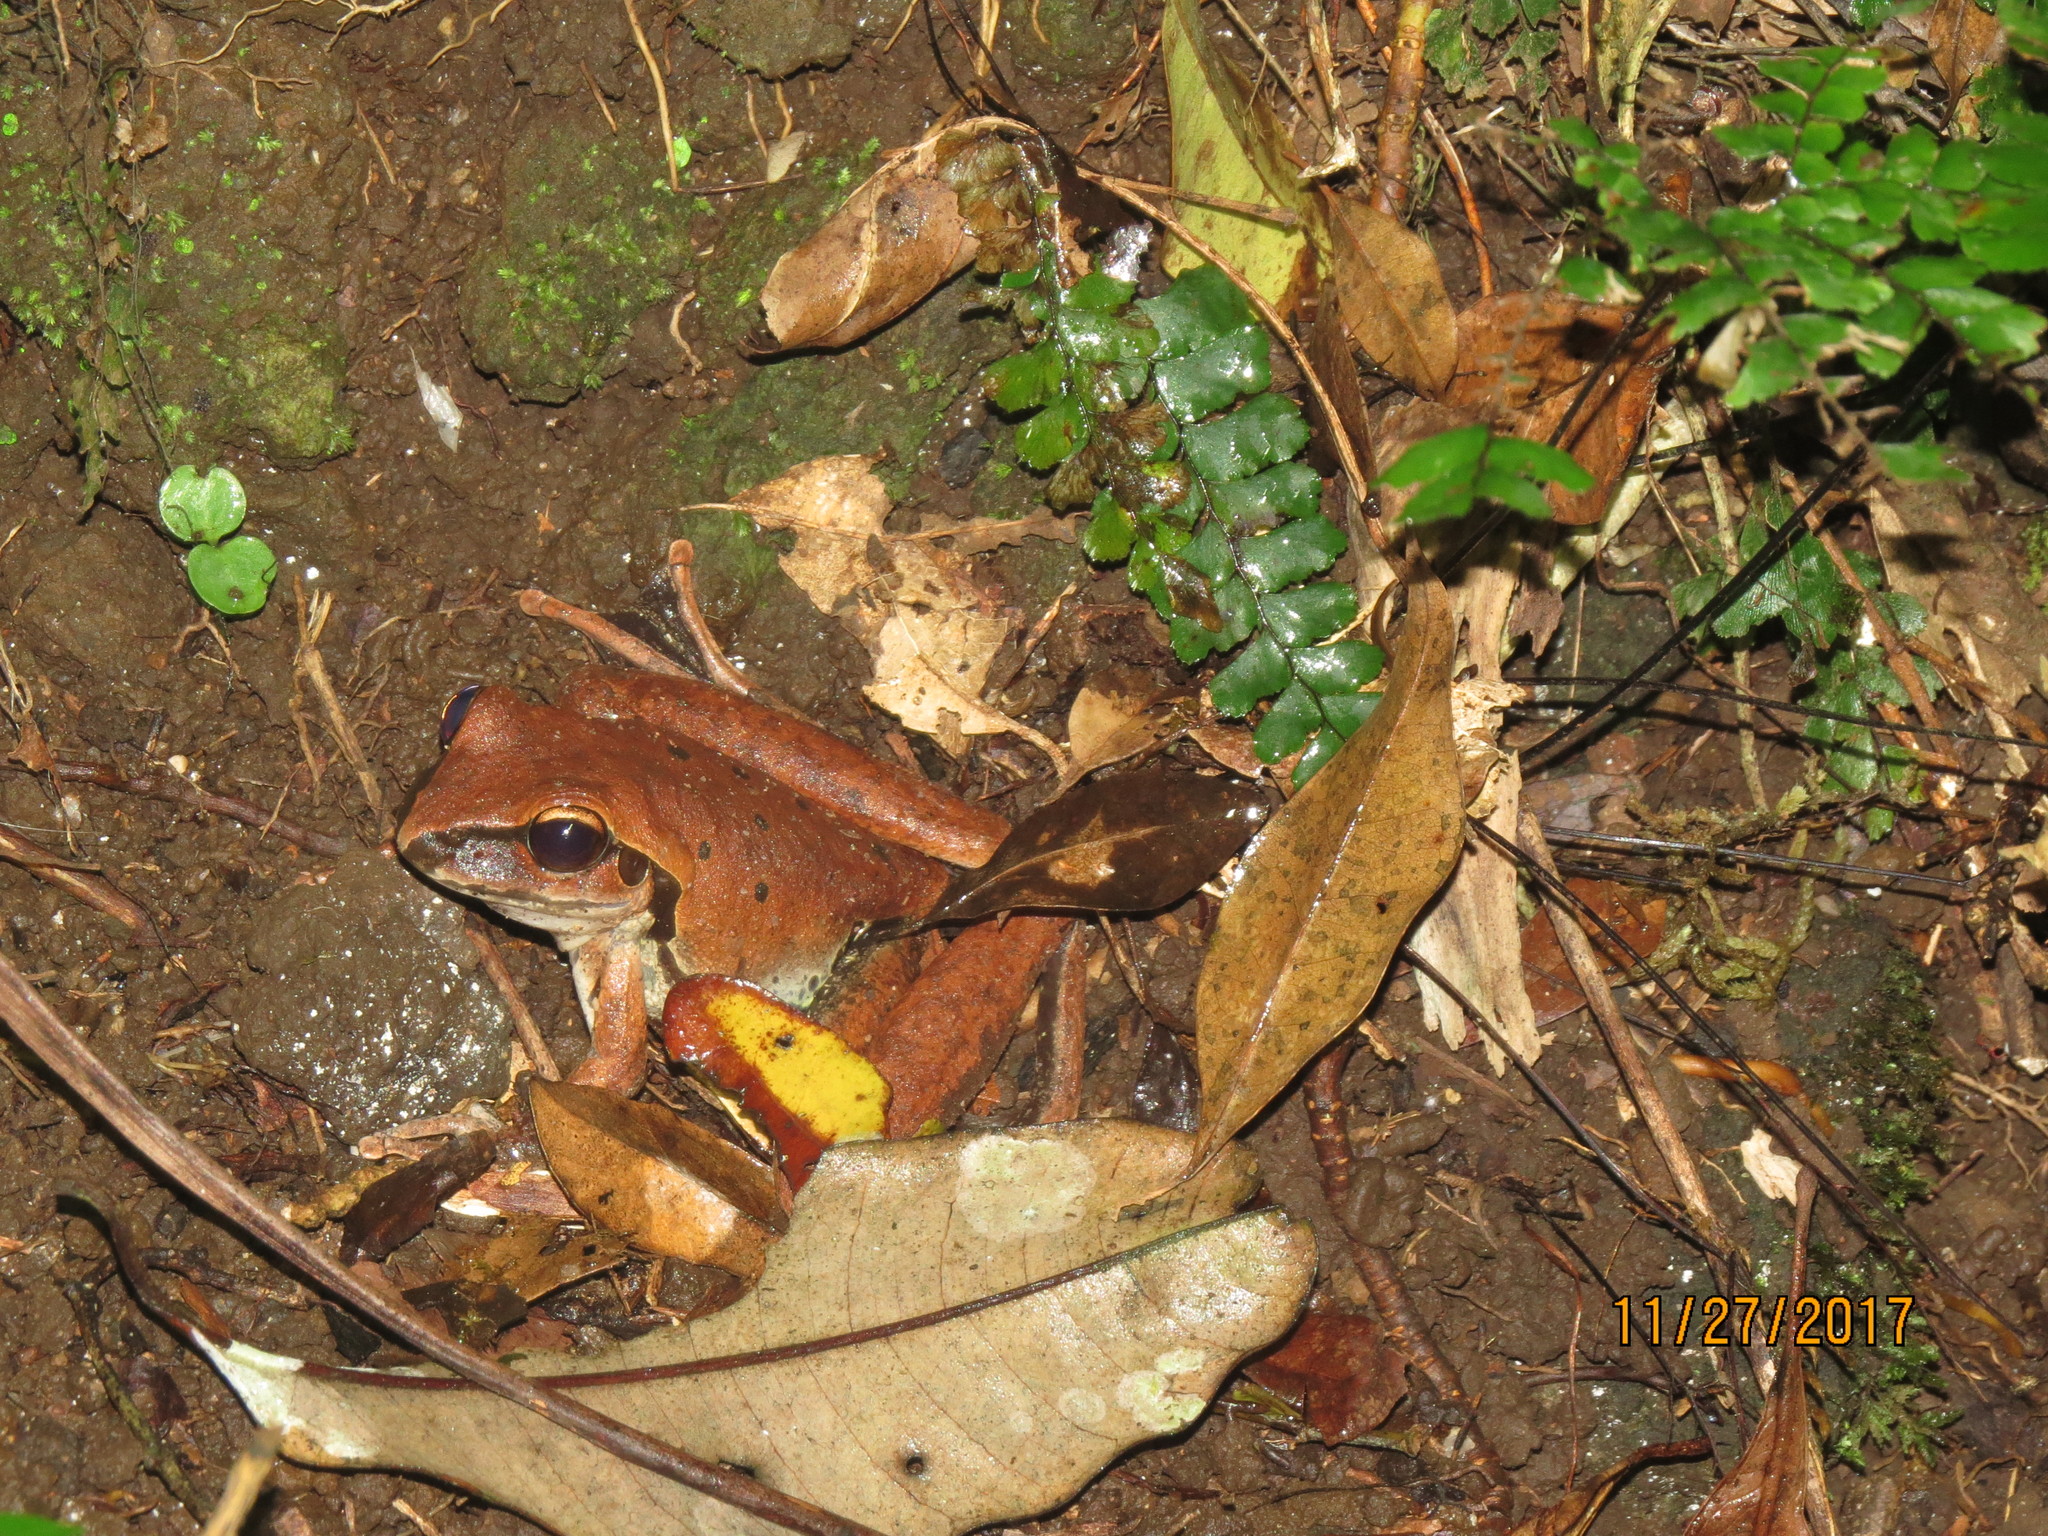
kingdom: Animalia
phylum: Chordata
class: Amphibia
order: Anura
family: Hylidae
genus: Ranoidea
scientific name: Ranoidea
